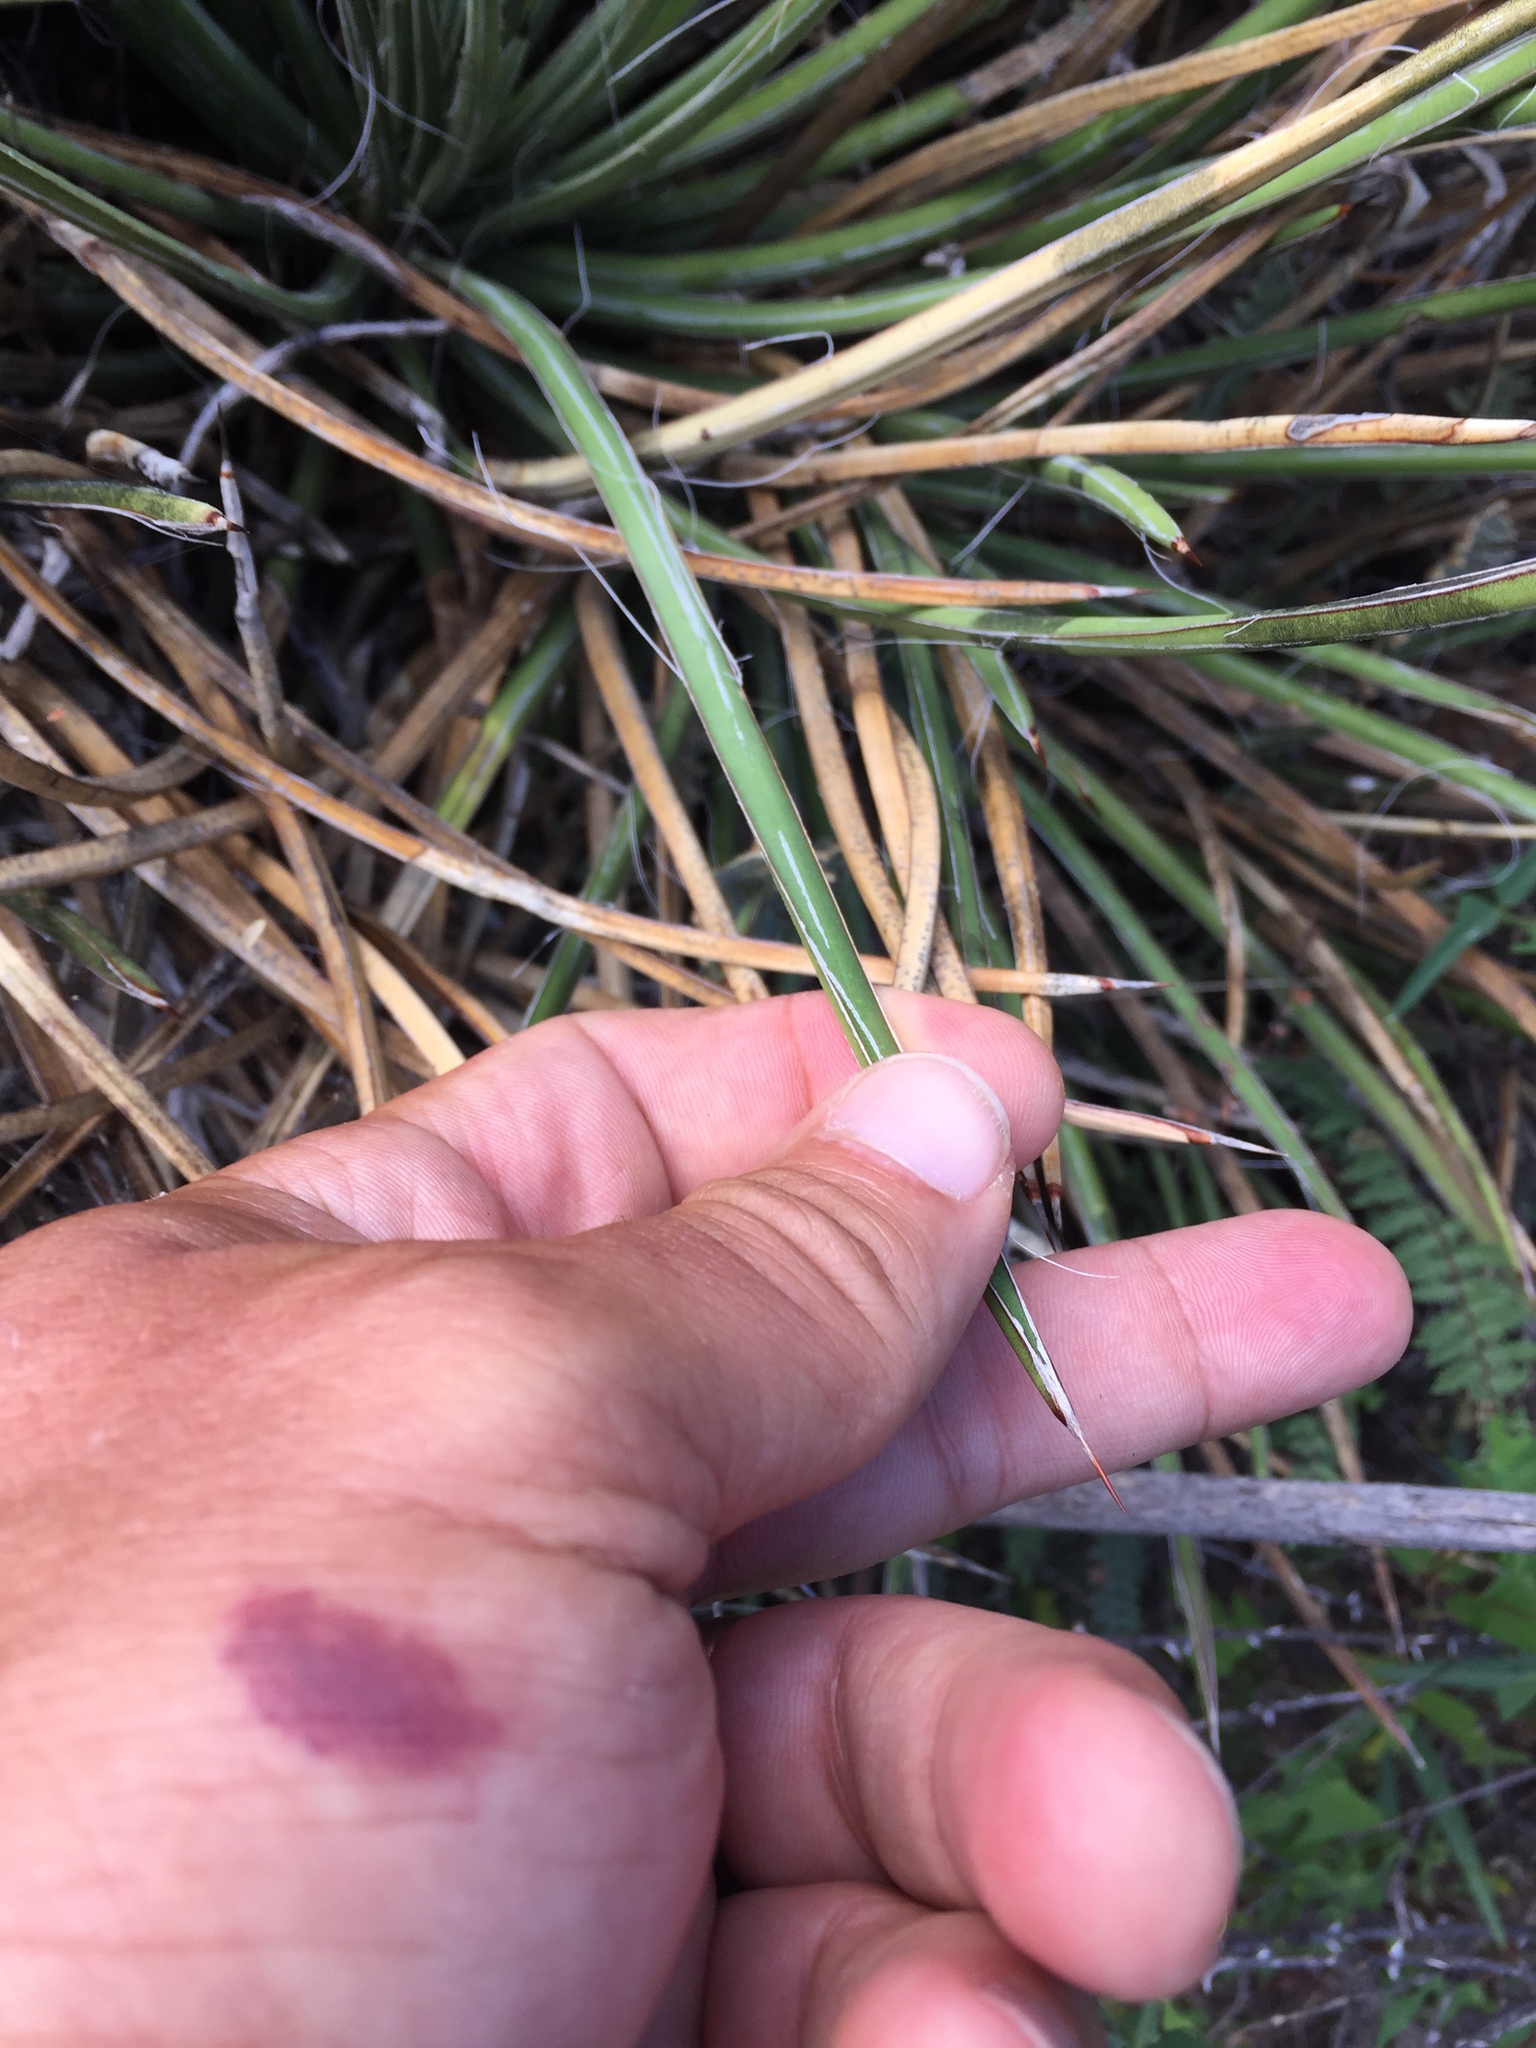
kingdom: Plantae
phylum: Tracheophyta
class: Liliopsida
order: Asparagales
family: Asparagaceae
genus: Agave
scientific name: Agave schottii
